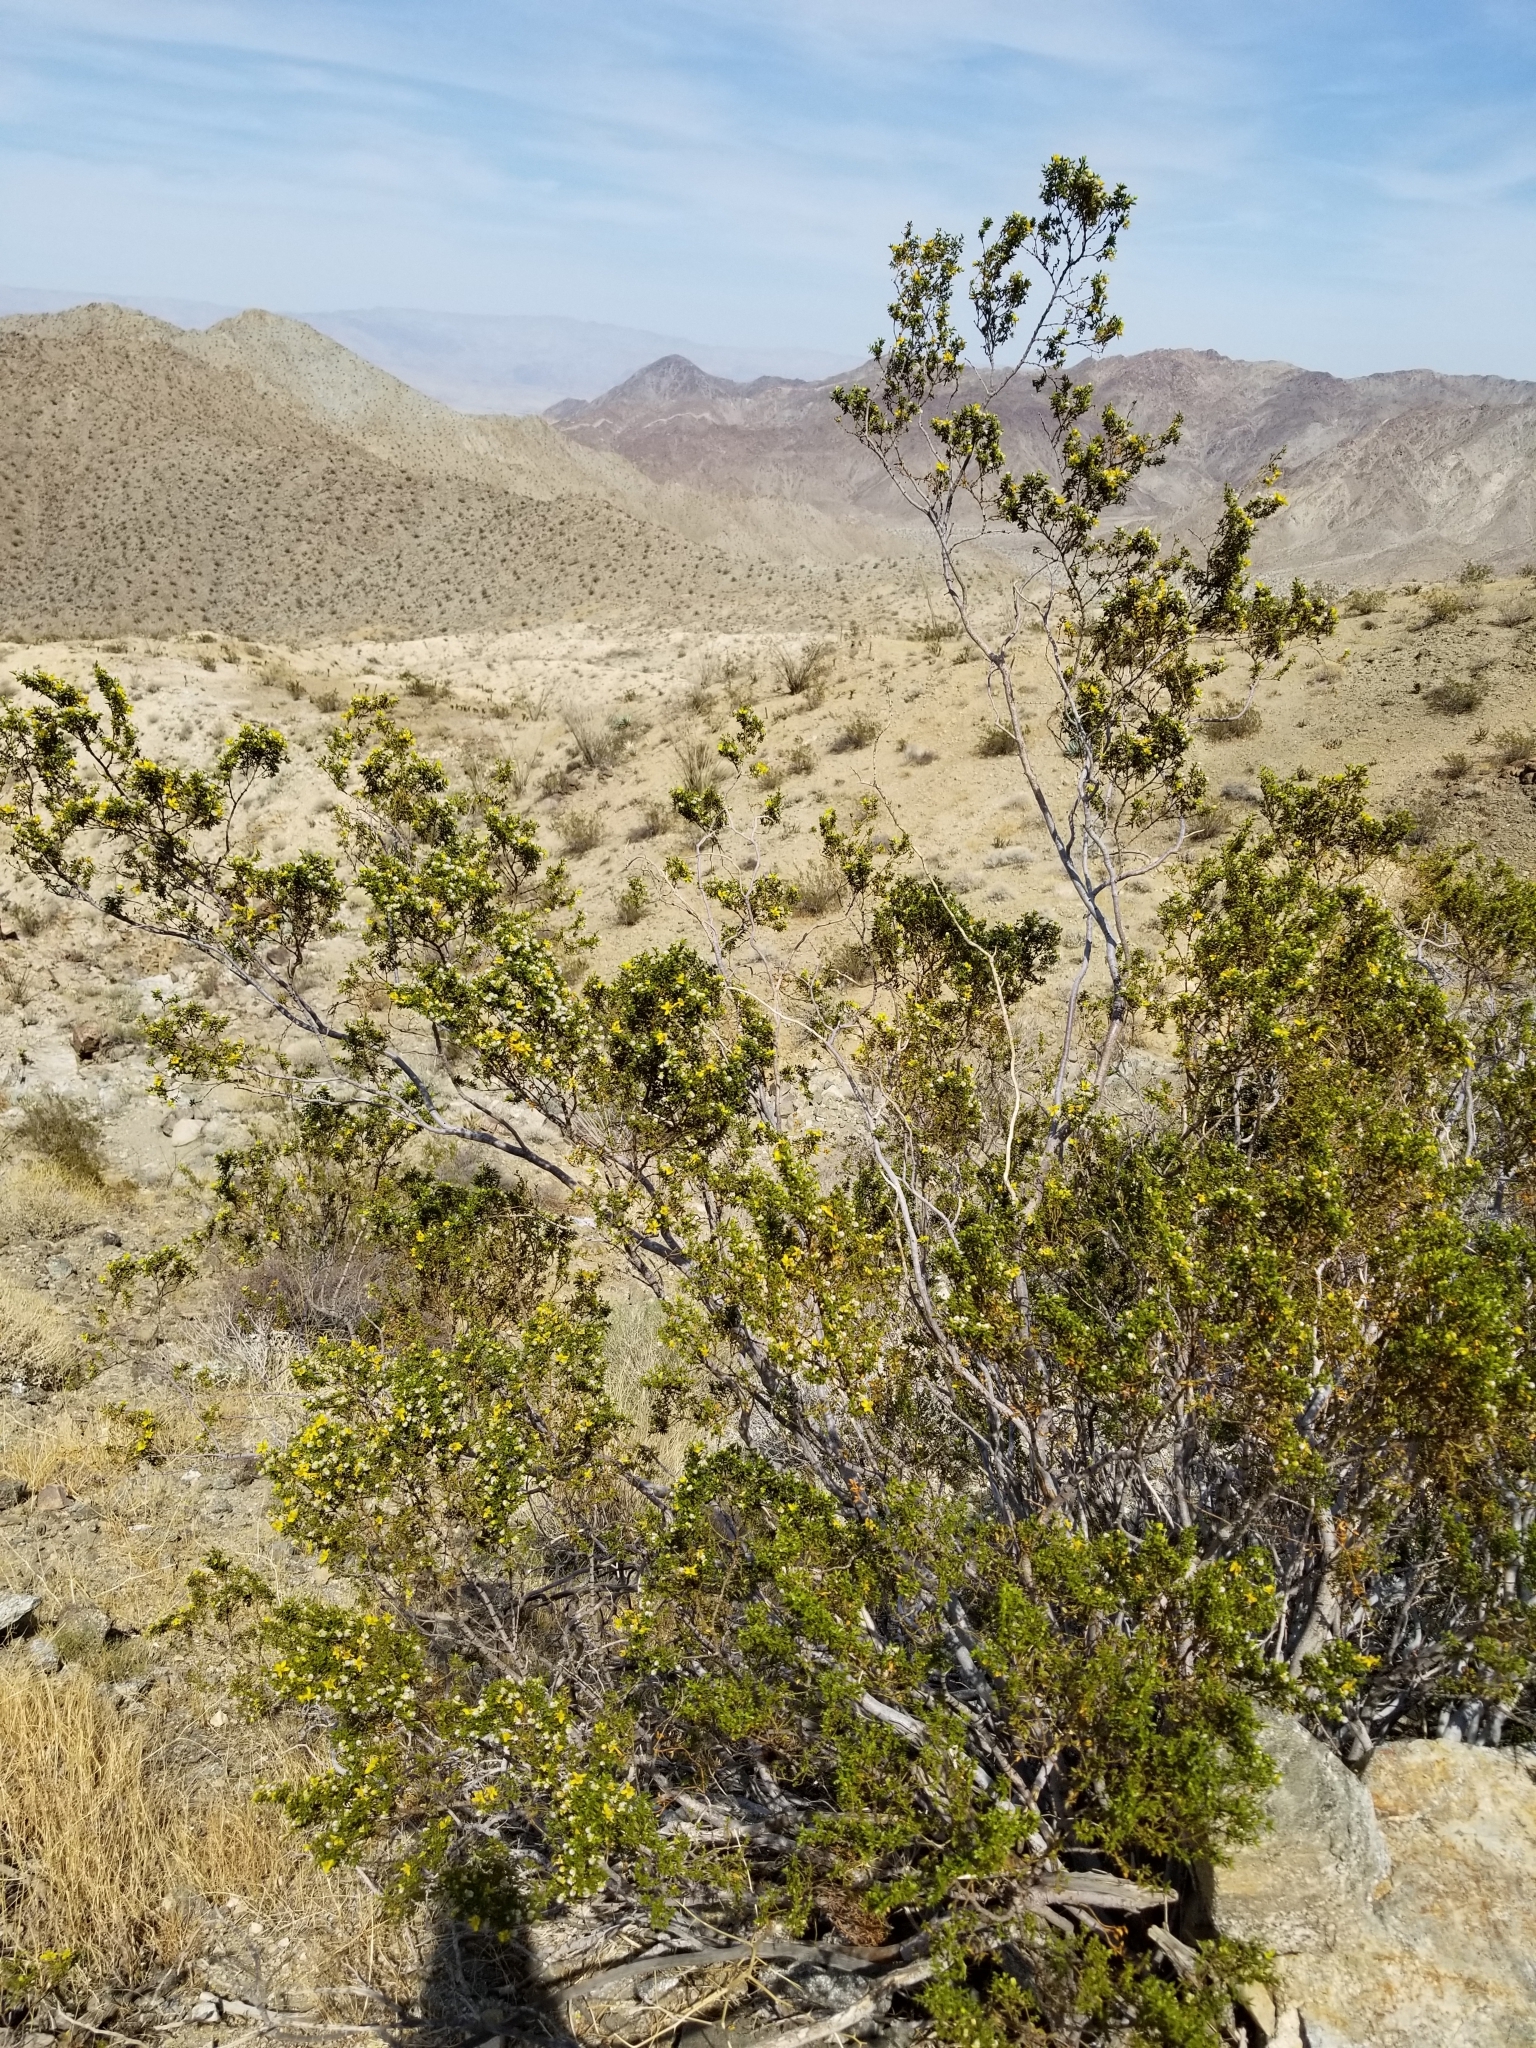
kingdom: Plantae
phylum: Tracheophyta
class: Magnoliopsida
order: Zygophyllales
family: Zygophyllaceae
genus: Larrea
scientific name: Larrea tridentata
